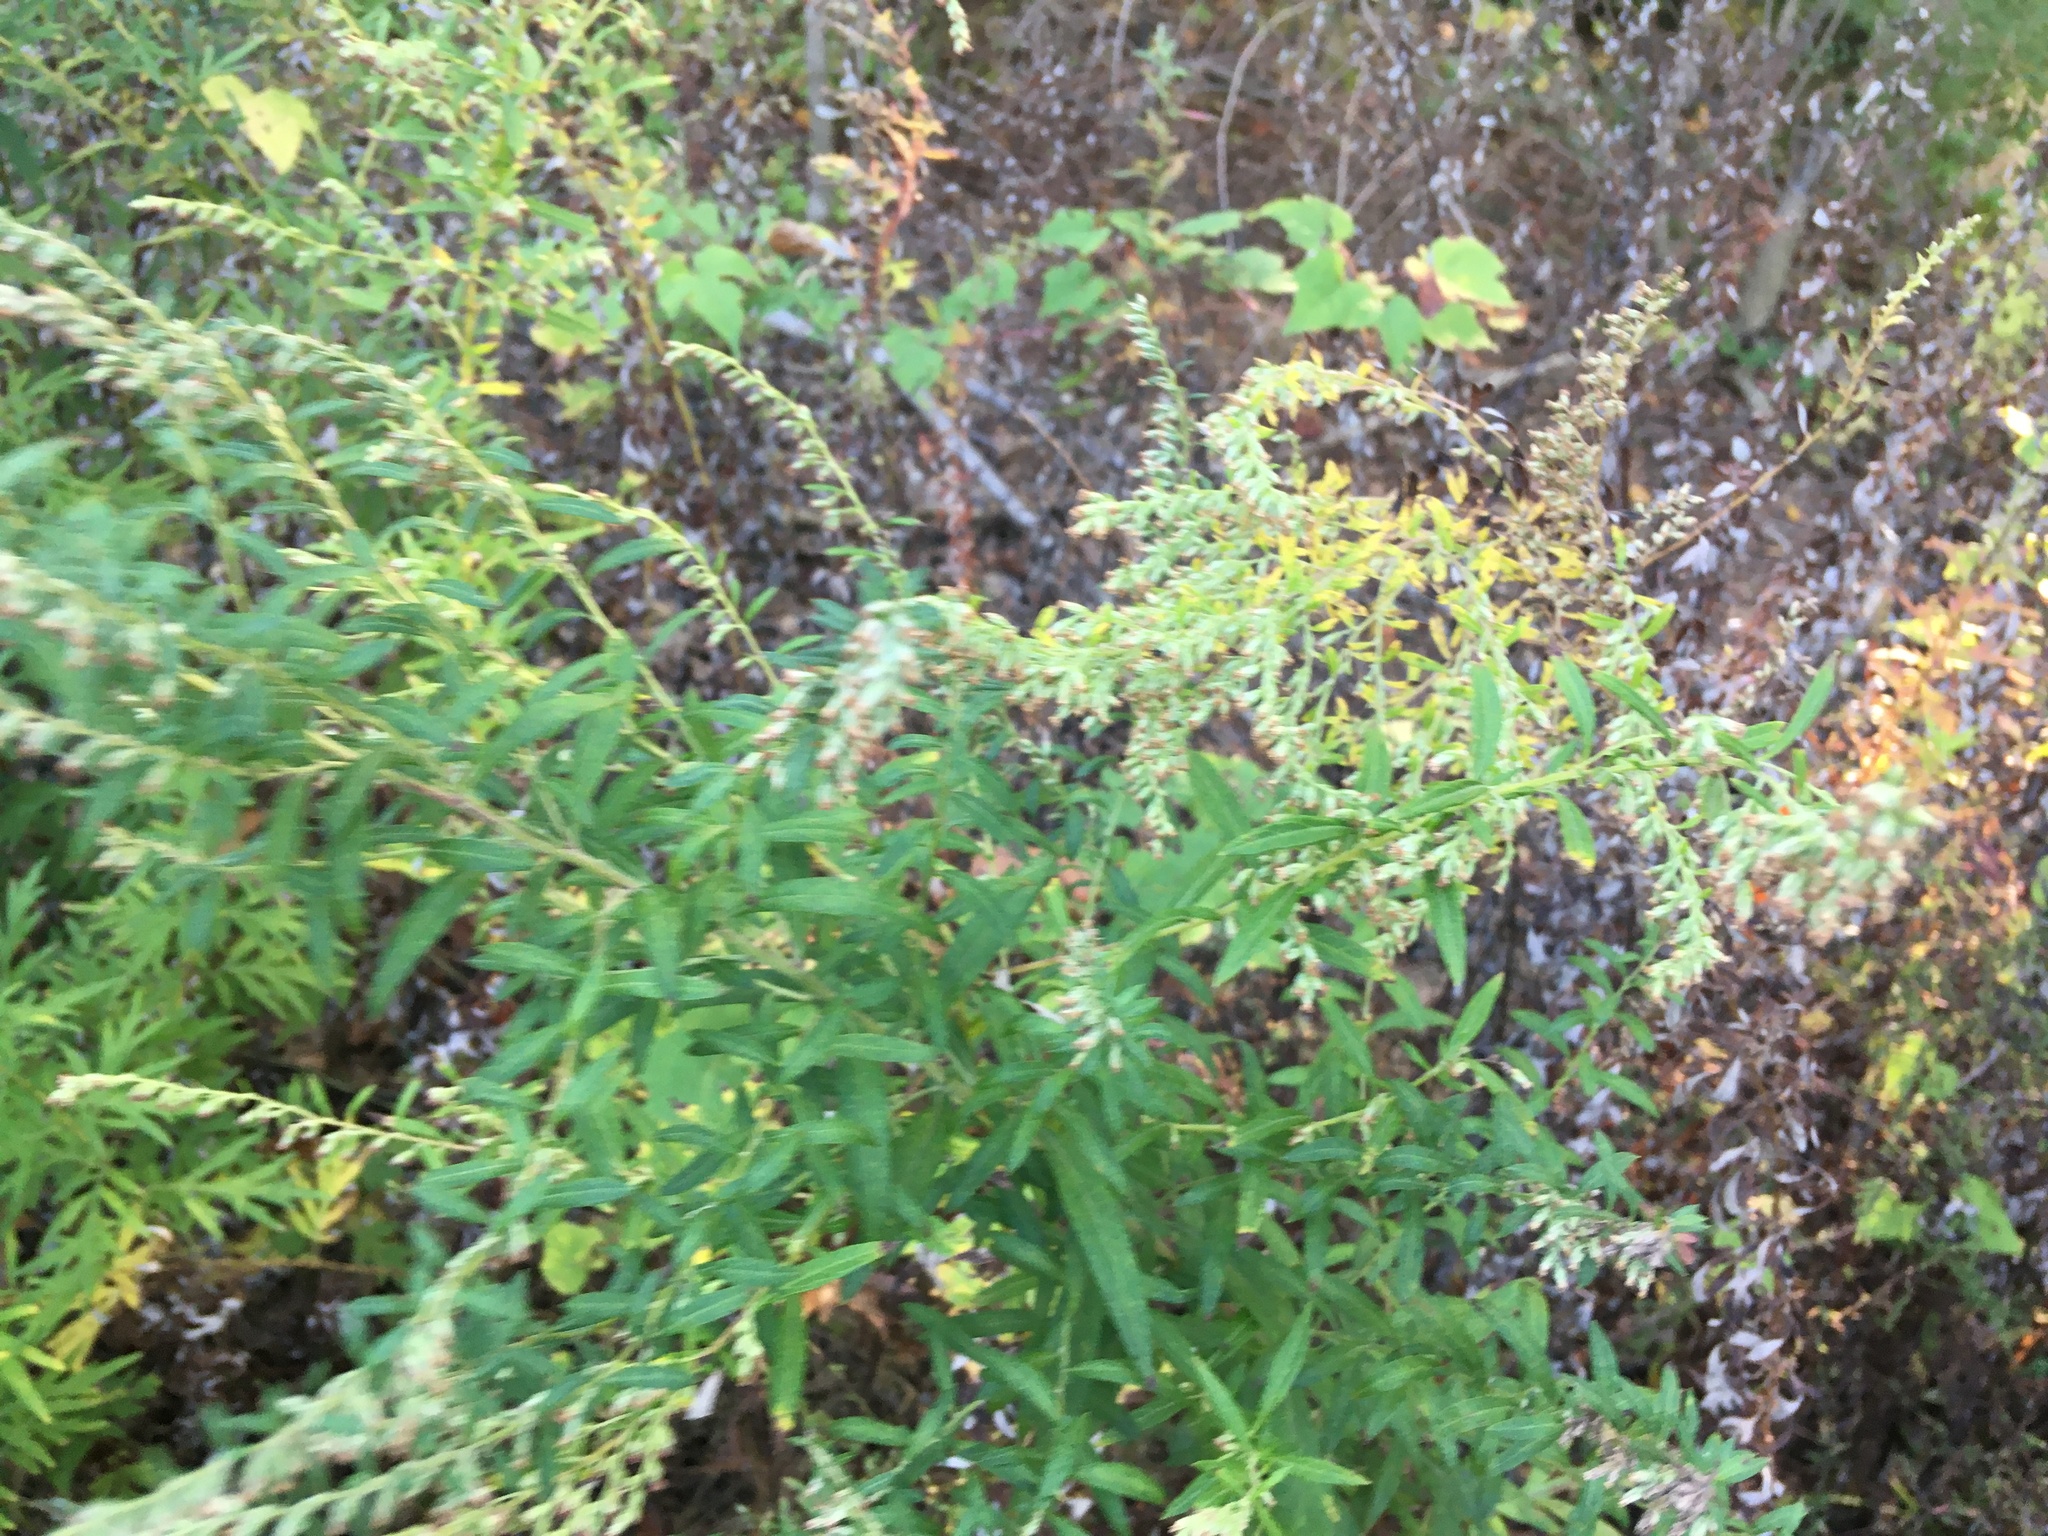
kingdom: Plantae
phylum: Tracheophyta
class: Magnoliopsida
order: Asterales
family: Asteraceae
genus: Artemisia
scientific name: Artemisia vulgaris
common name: Mugwort
